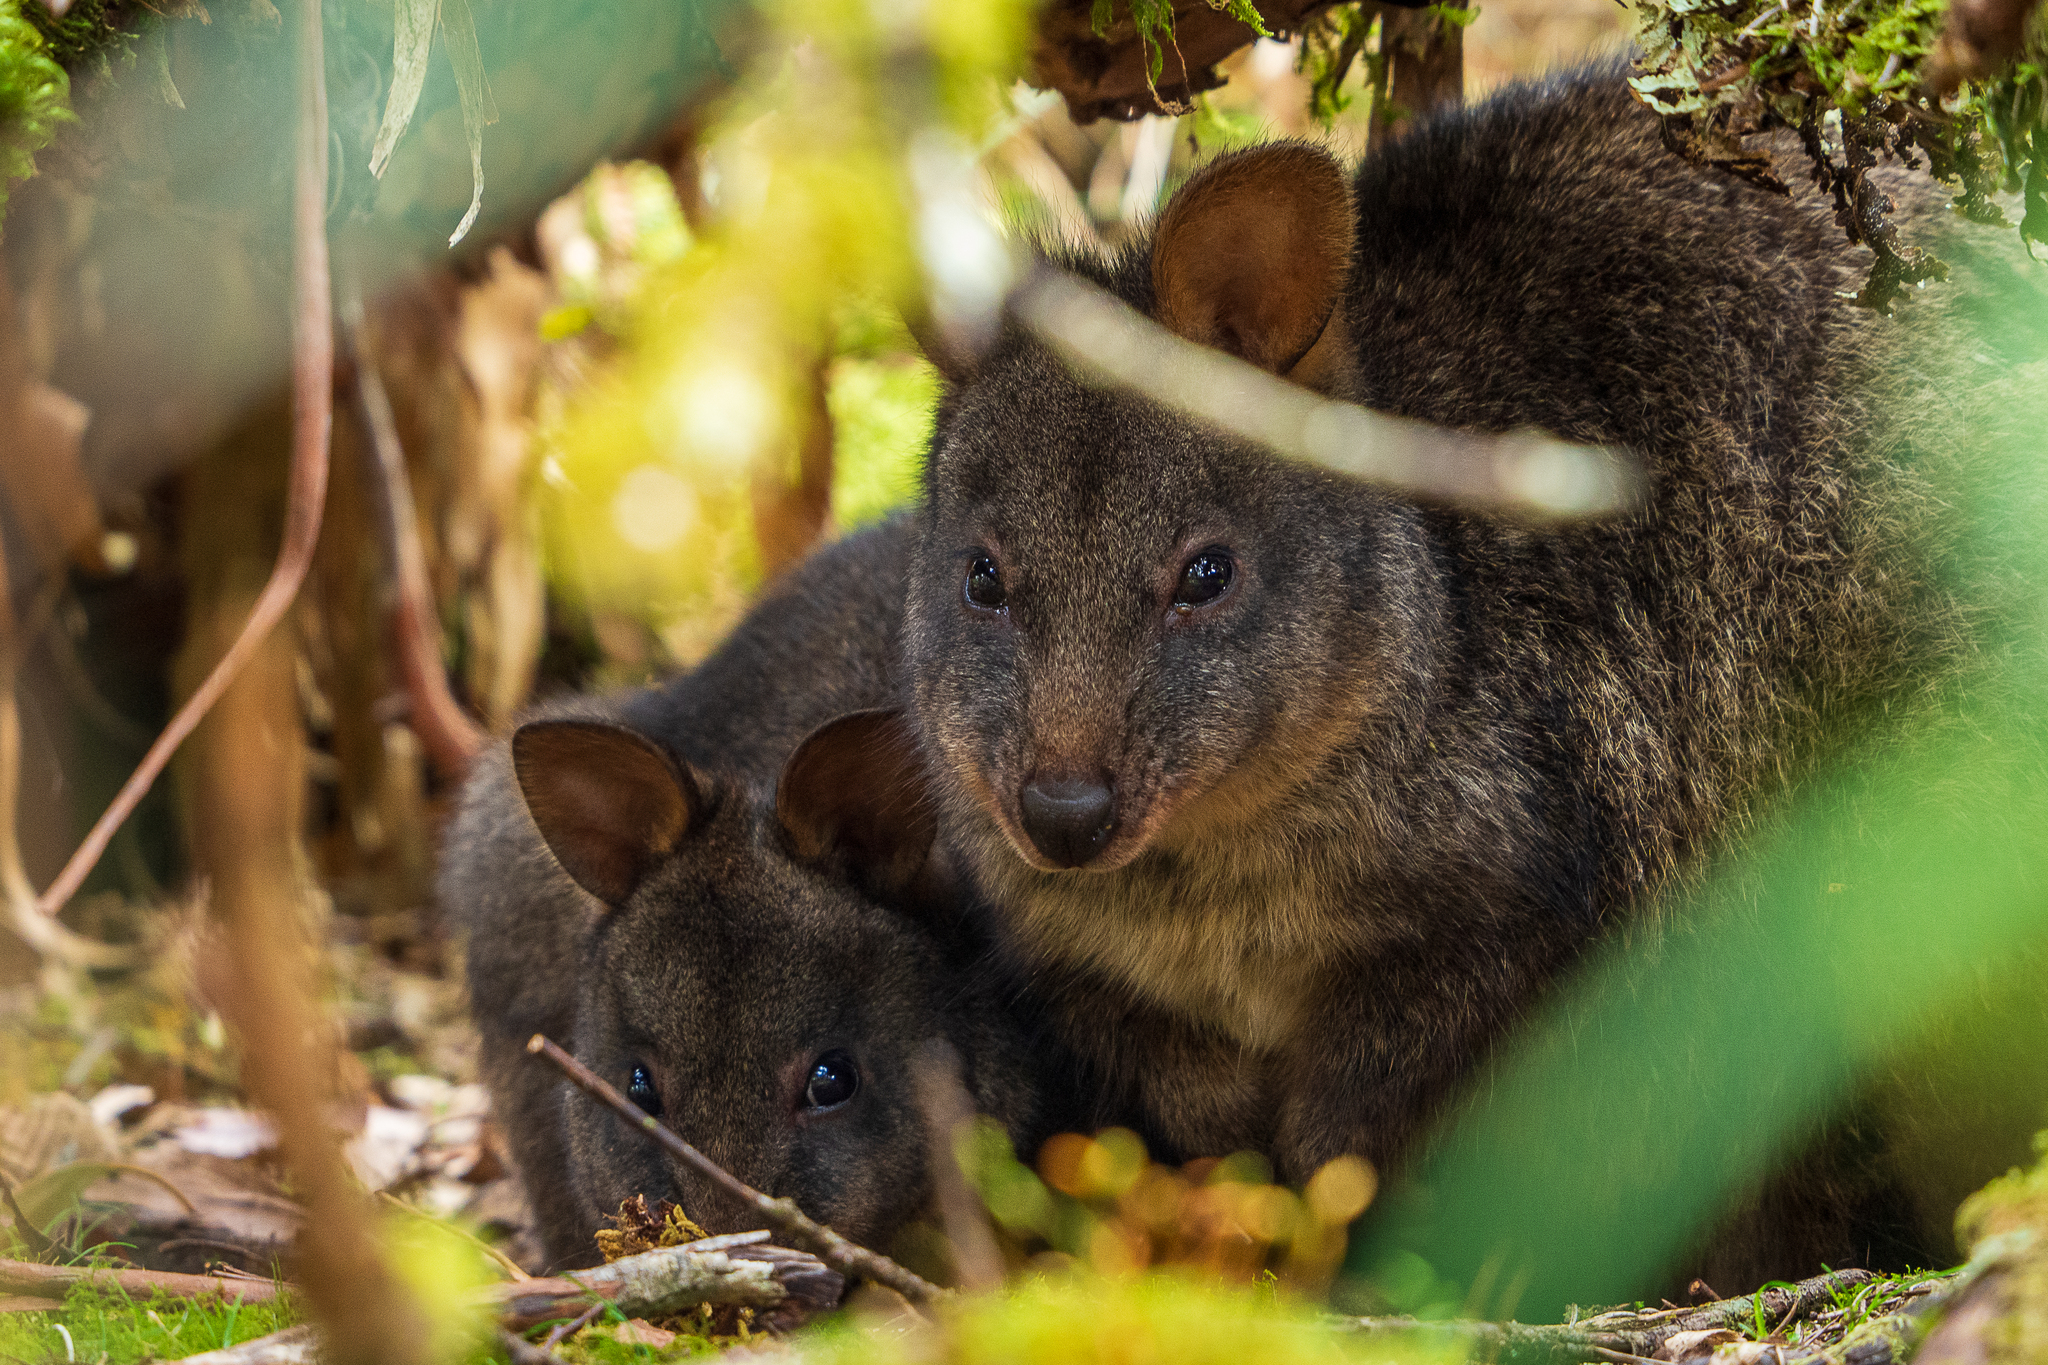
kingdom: Animalia
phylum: Chordata
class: Mammalia
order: Diprotodontia
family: Macropodidae
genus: Thylogale
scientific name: Thylogale billardierii
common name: Tasmanian pademelon
